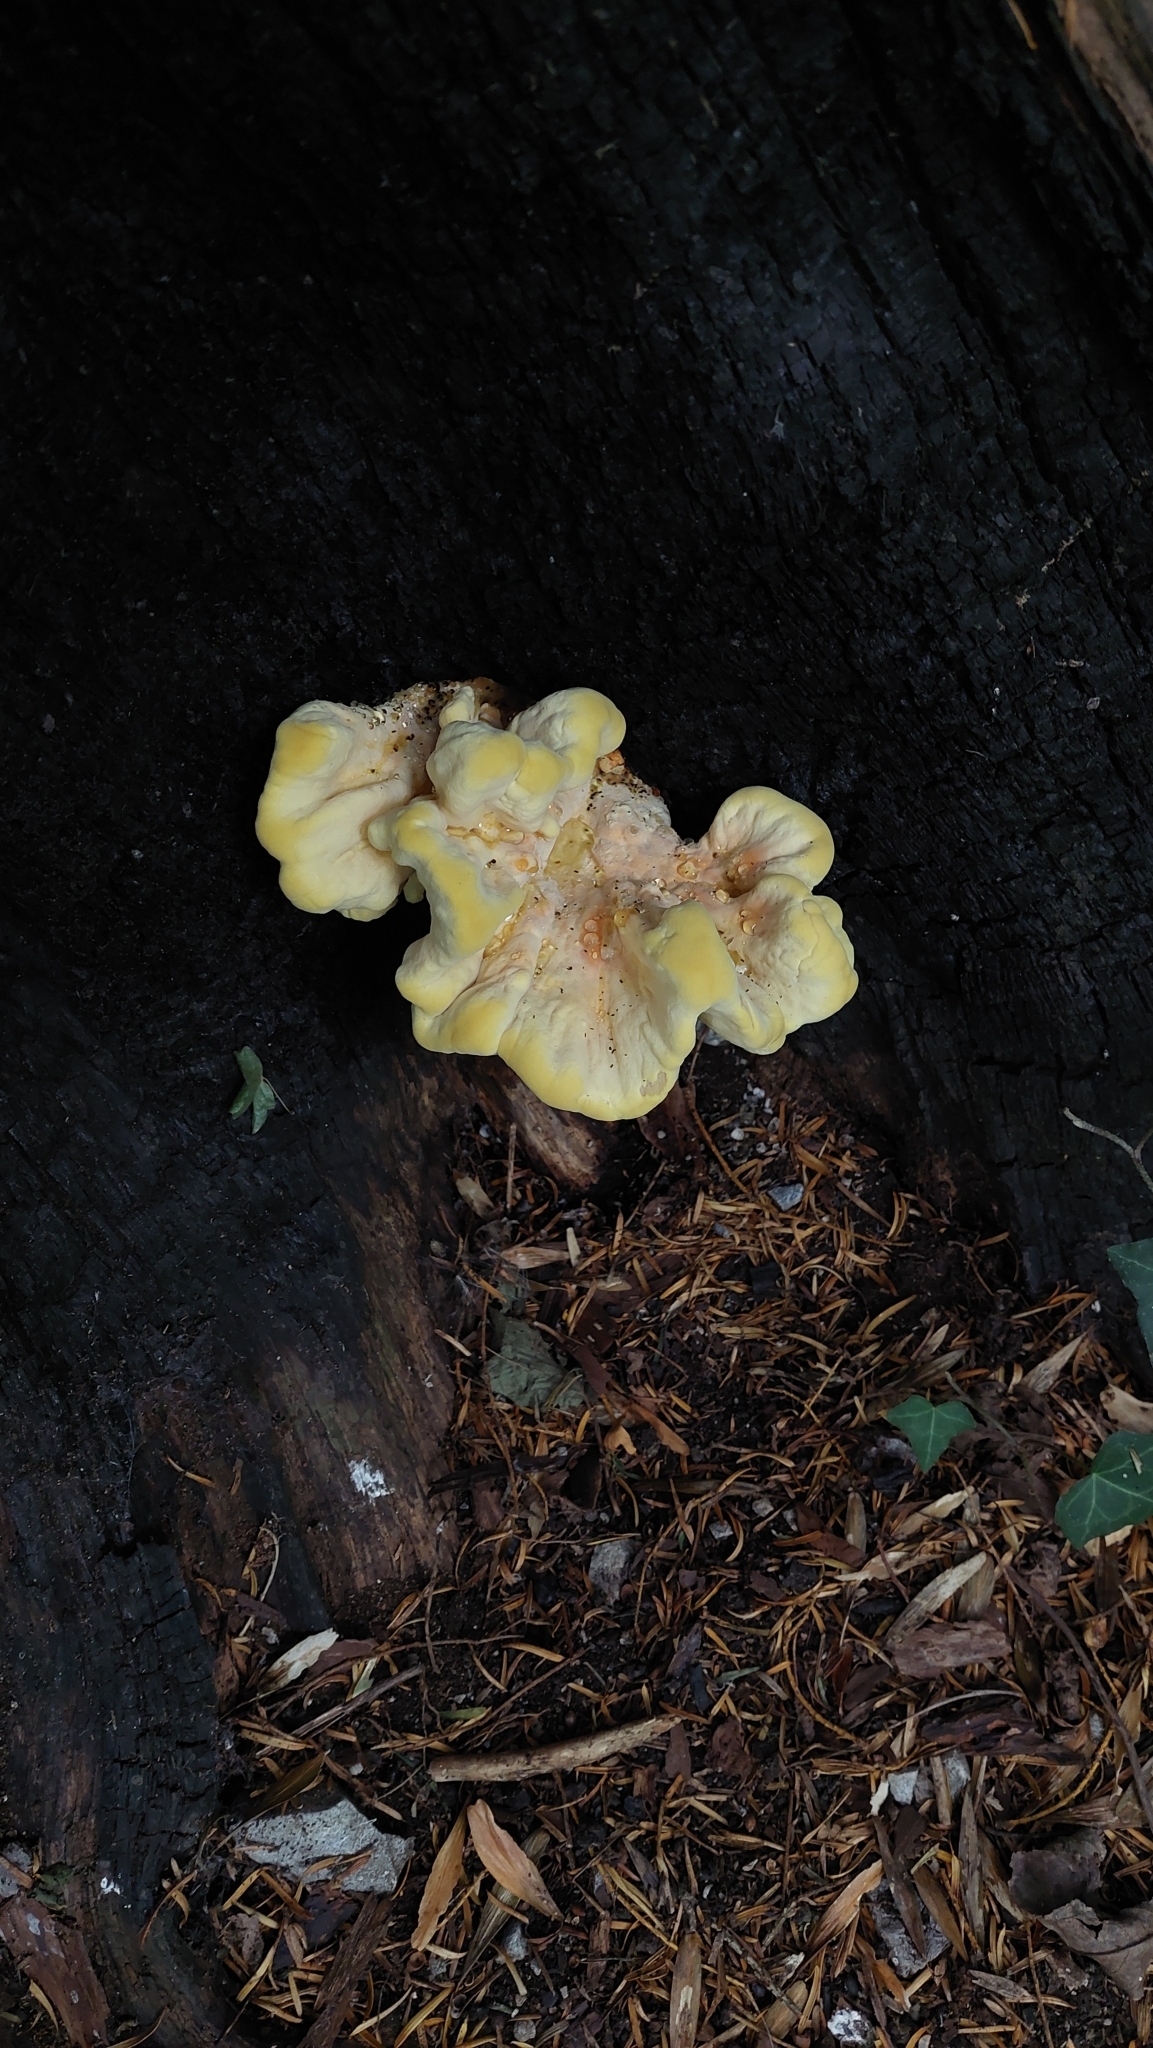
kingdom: Fungi
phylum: Basidiomycota
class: Agaricomycetes
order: Polyporales
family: Laetiporaceae
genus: Laetiporus
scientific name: Laetiporus sulphureus
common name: Chicken of the woods
